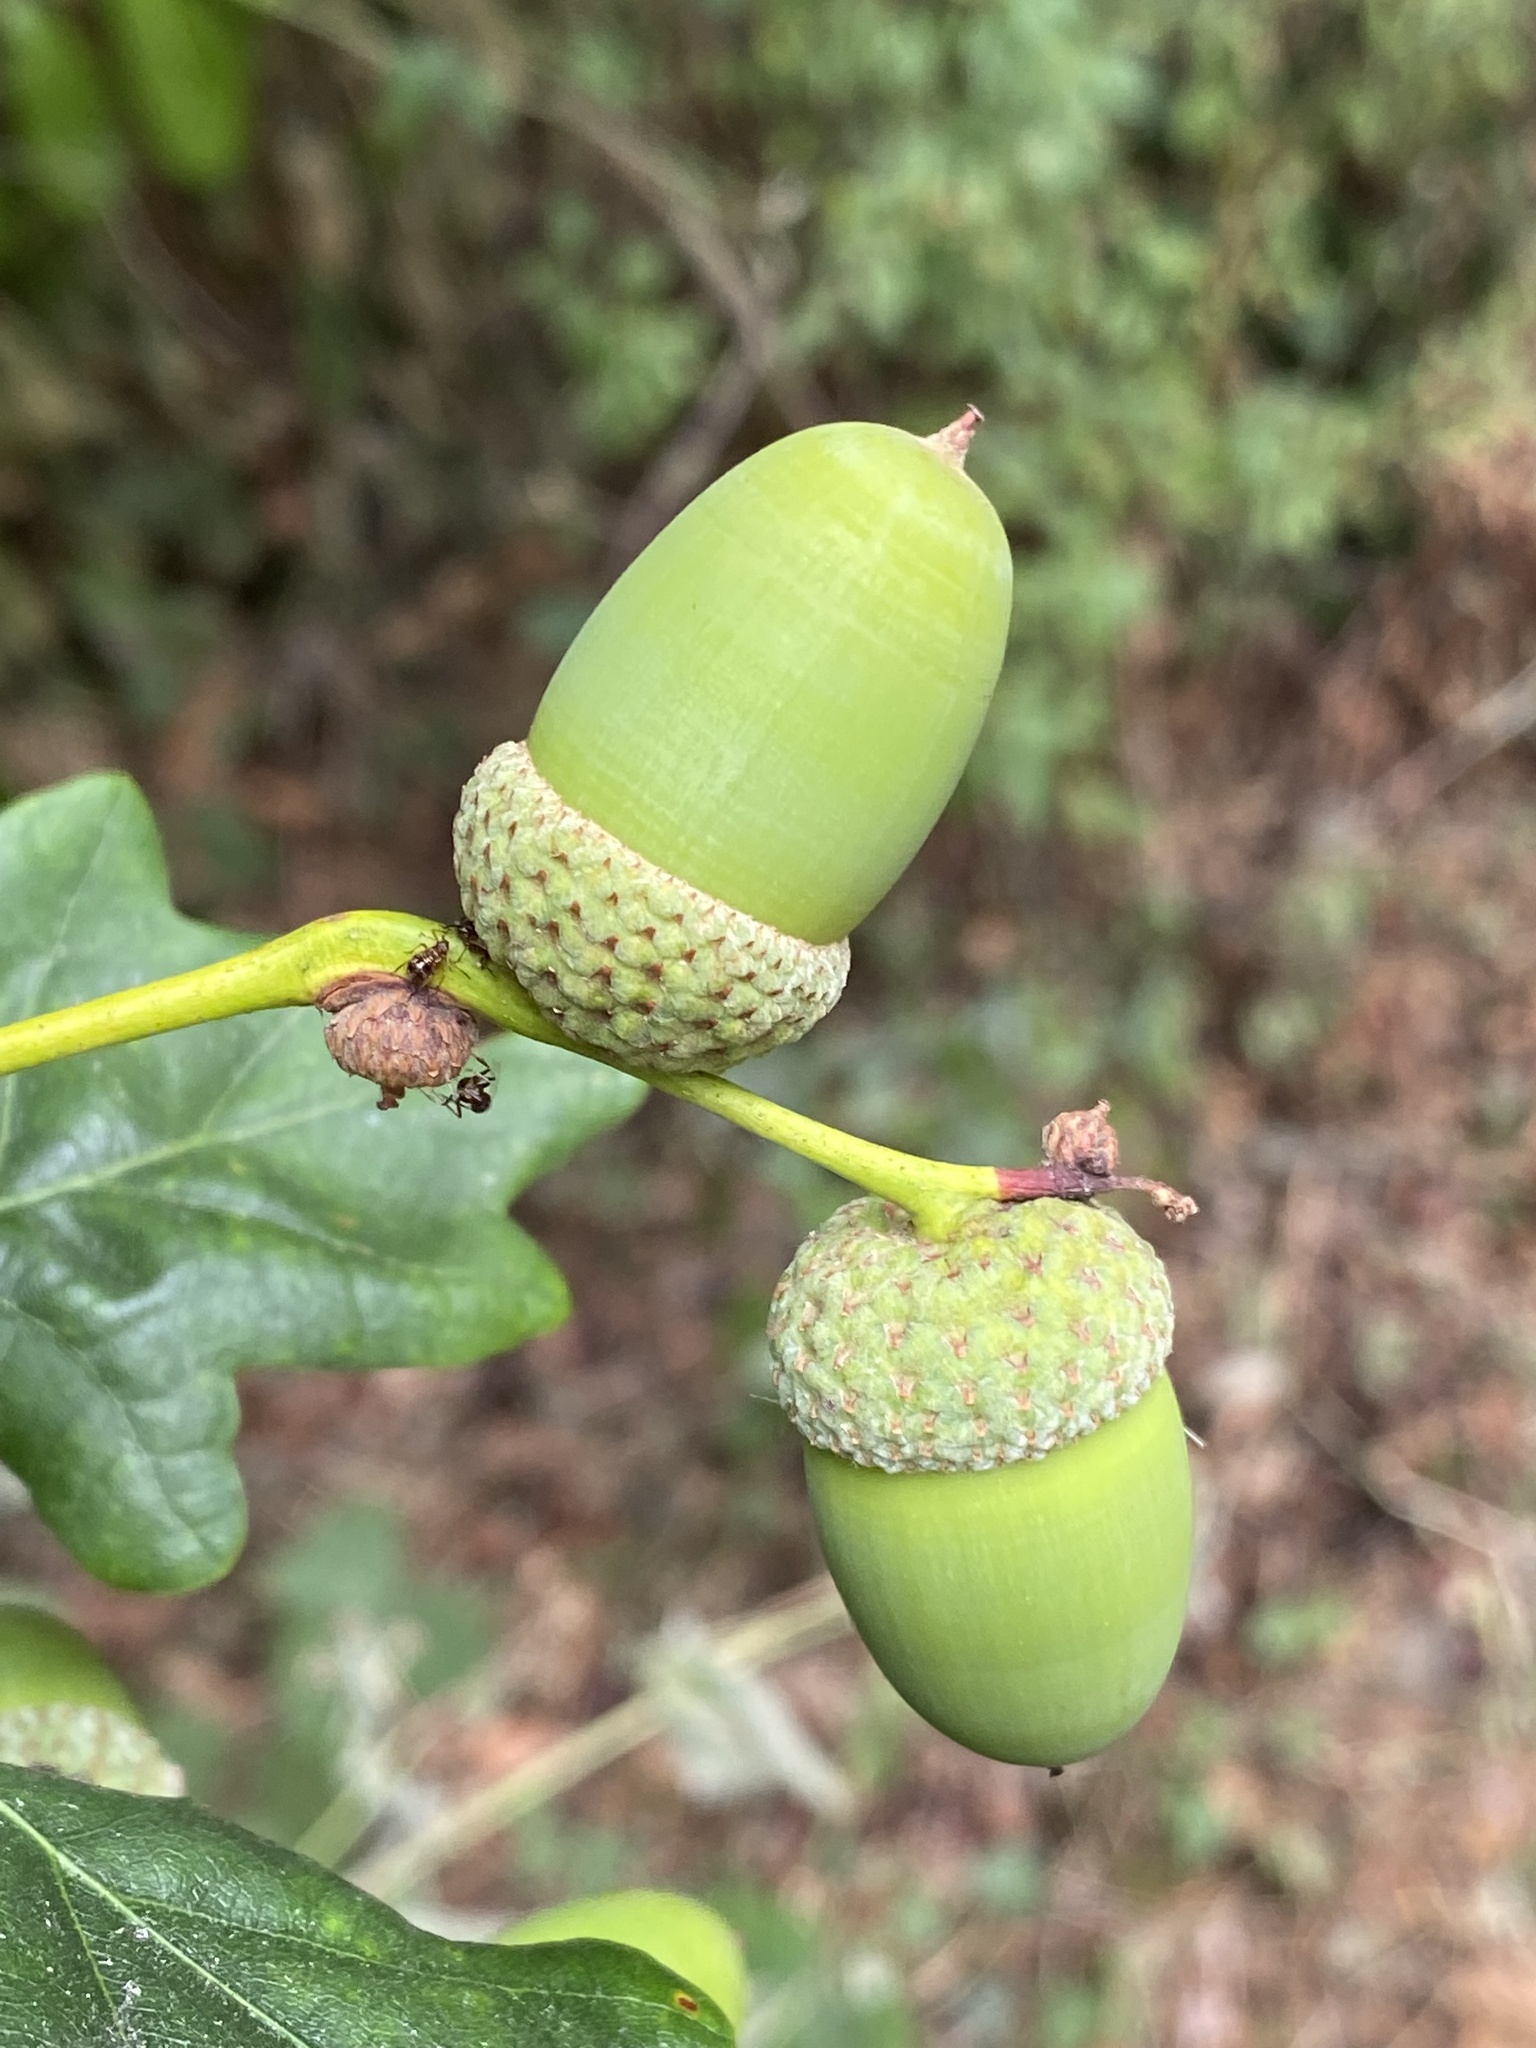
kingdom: Plantae
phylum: Tracheophyta
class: Magnoliopsida
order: Fagales
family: Fagaceae
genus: Quercus
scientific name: Quercus robur
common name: Pedunculate oak
